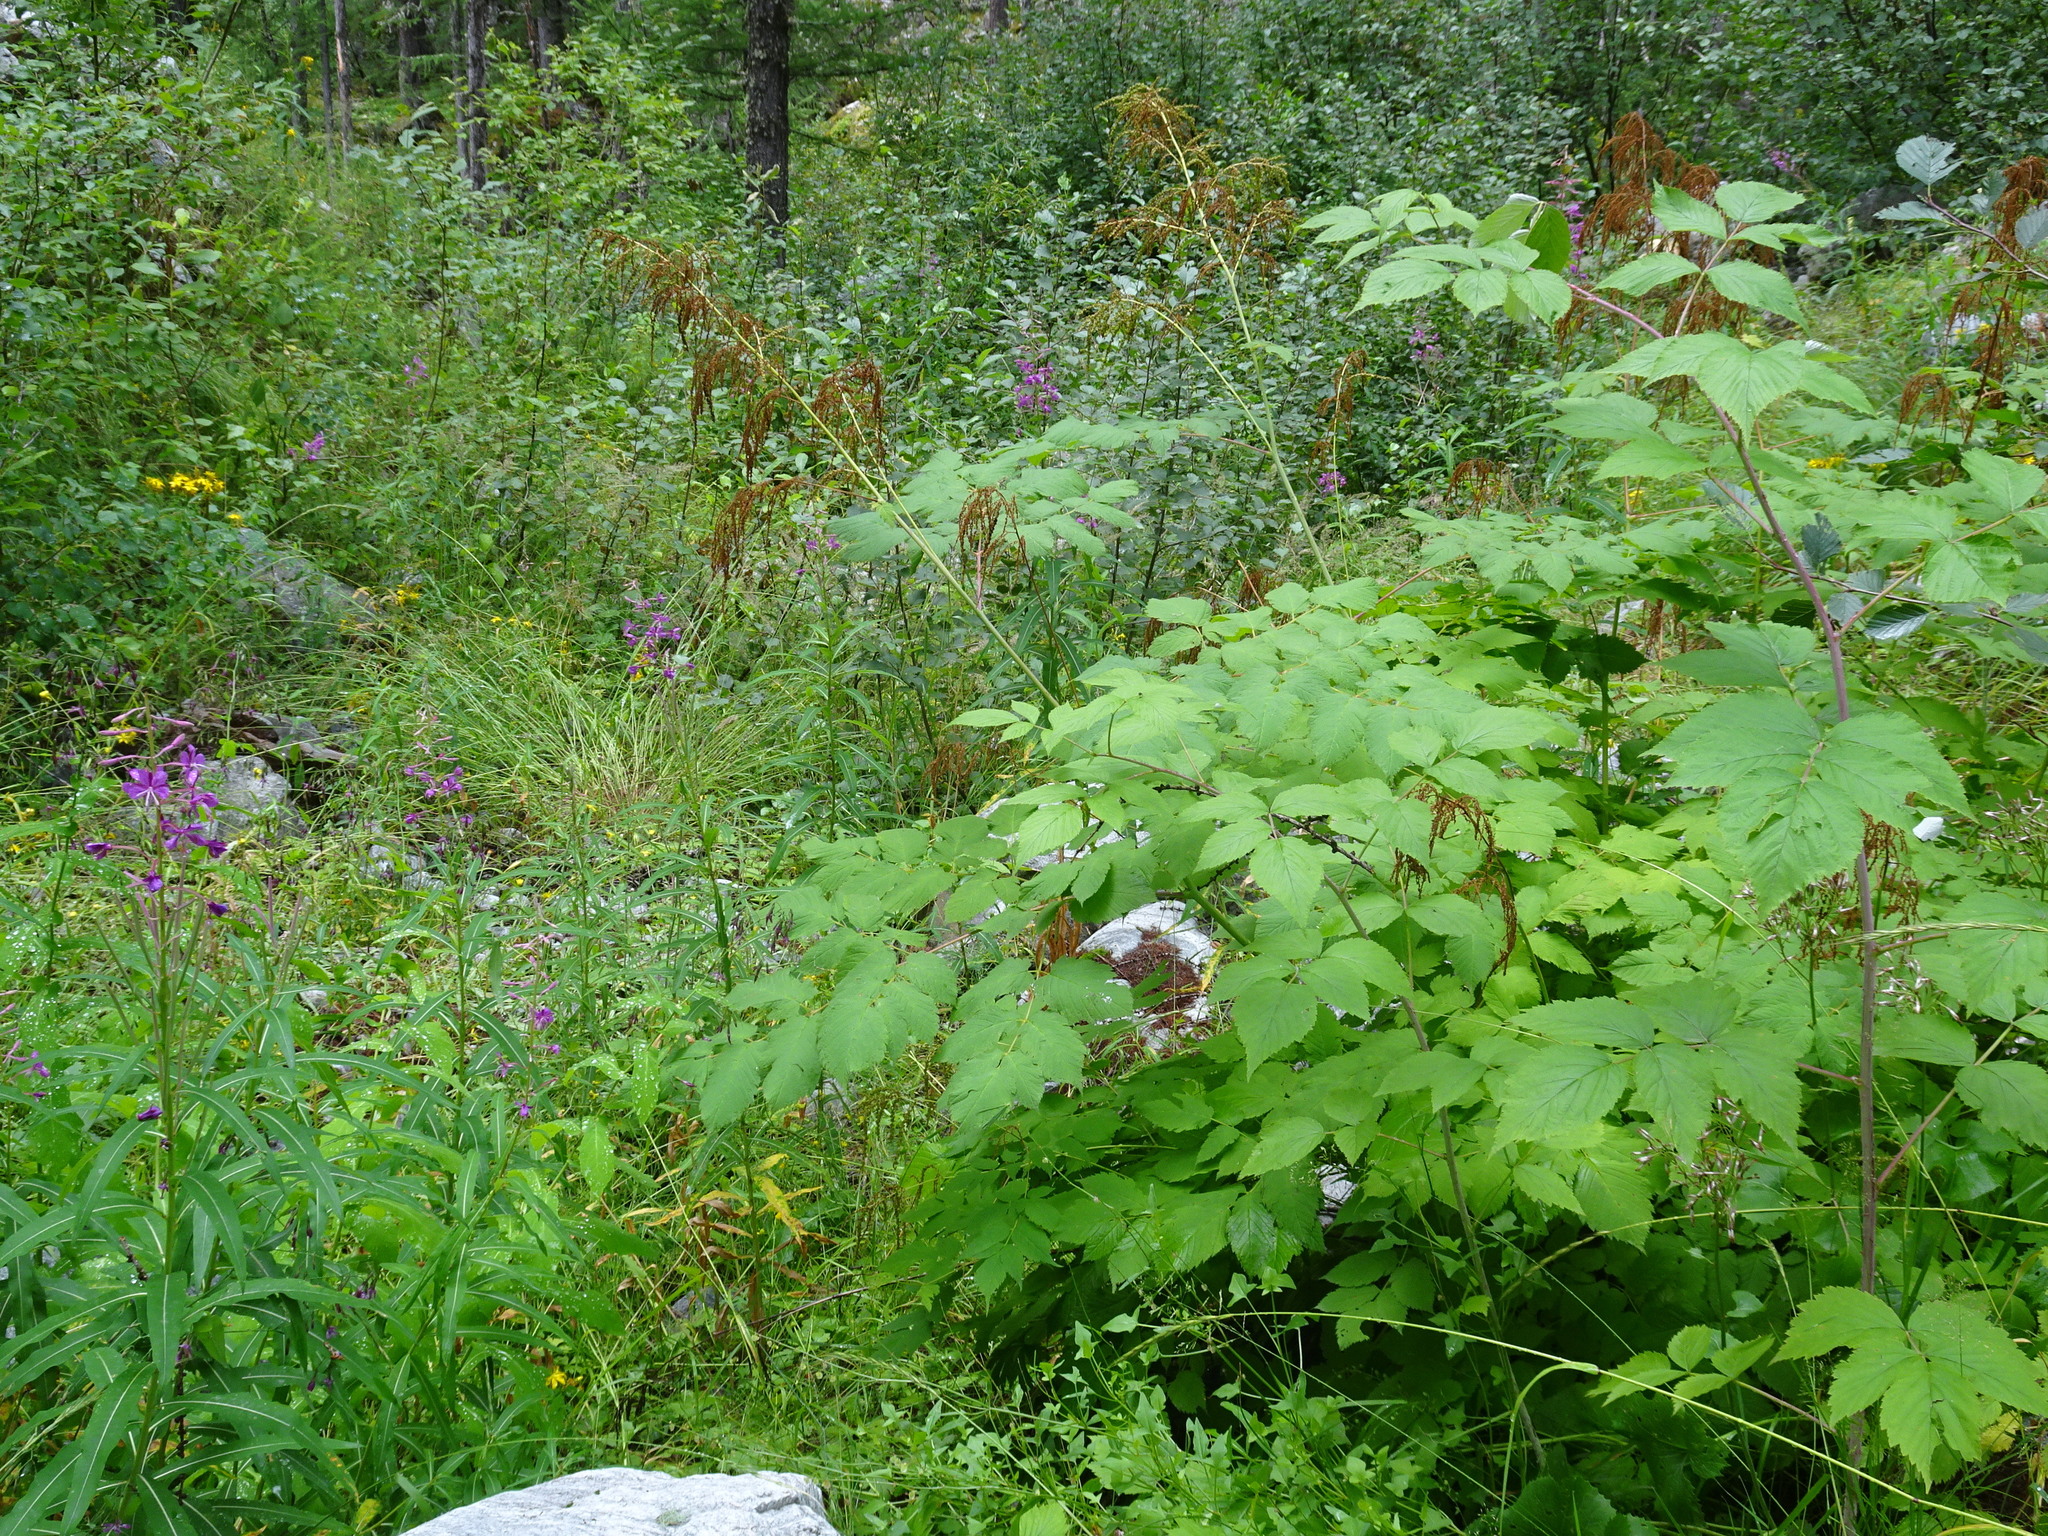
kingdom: Plantae
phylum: Tracheophyta
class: Magnoliopsida
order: Rosales
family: Rosaceae
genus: Aruncus
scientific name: Aruncus dioicus
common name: Buck's-beard
